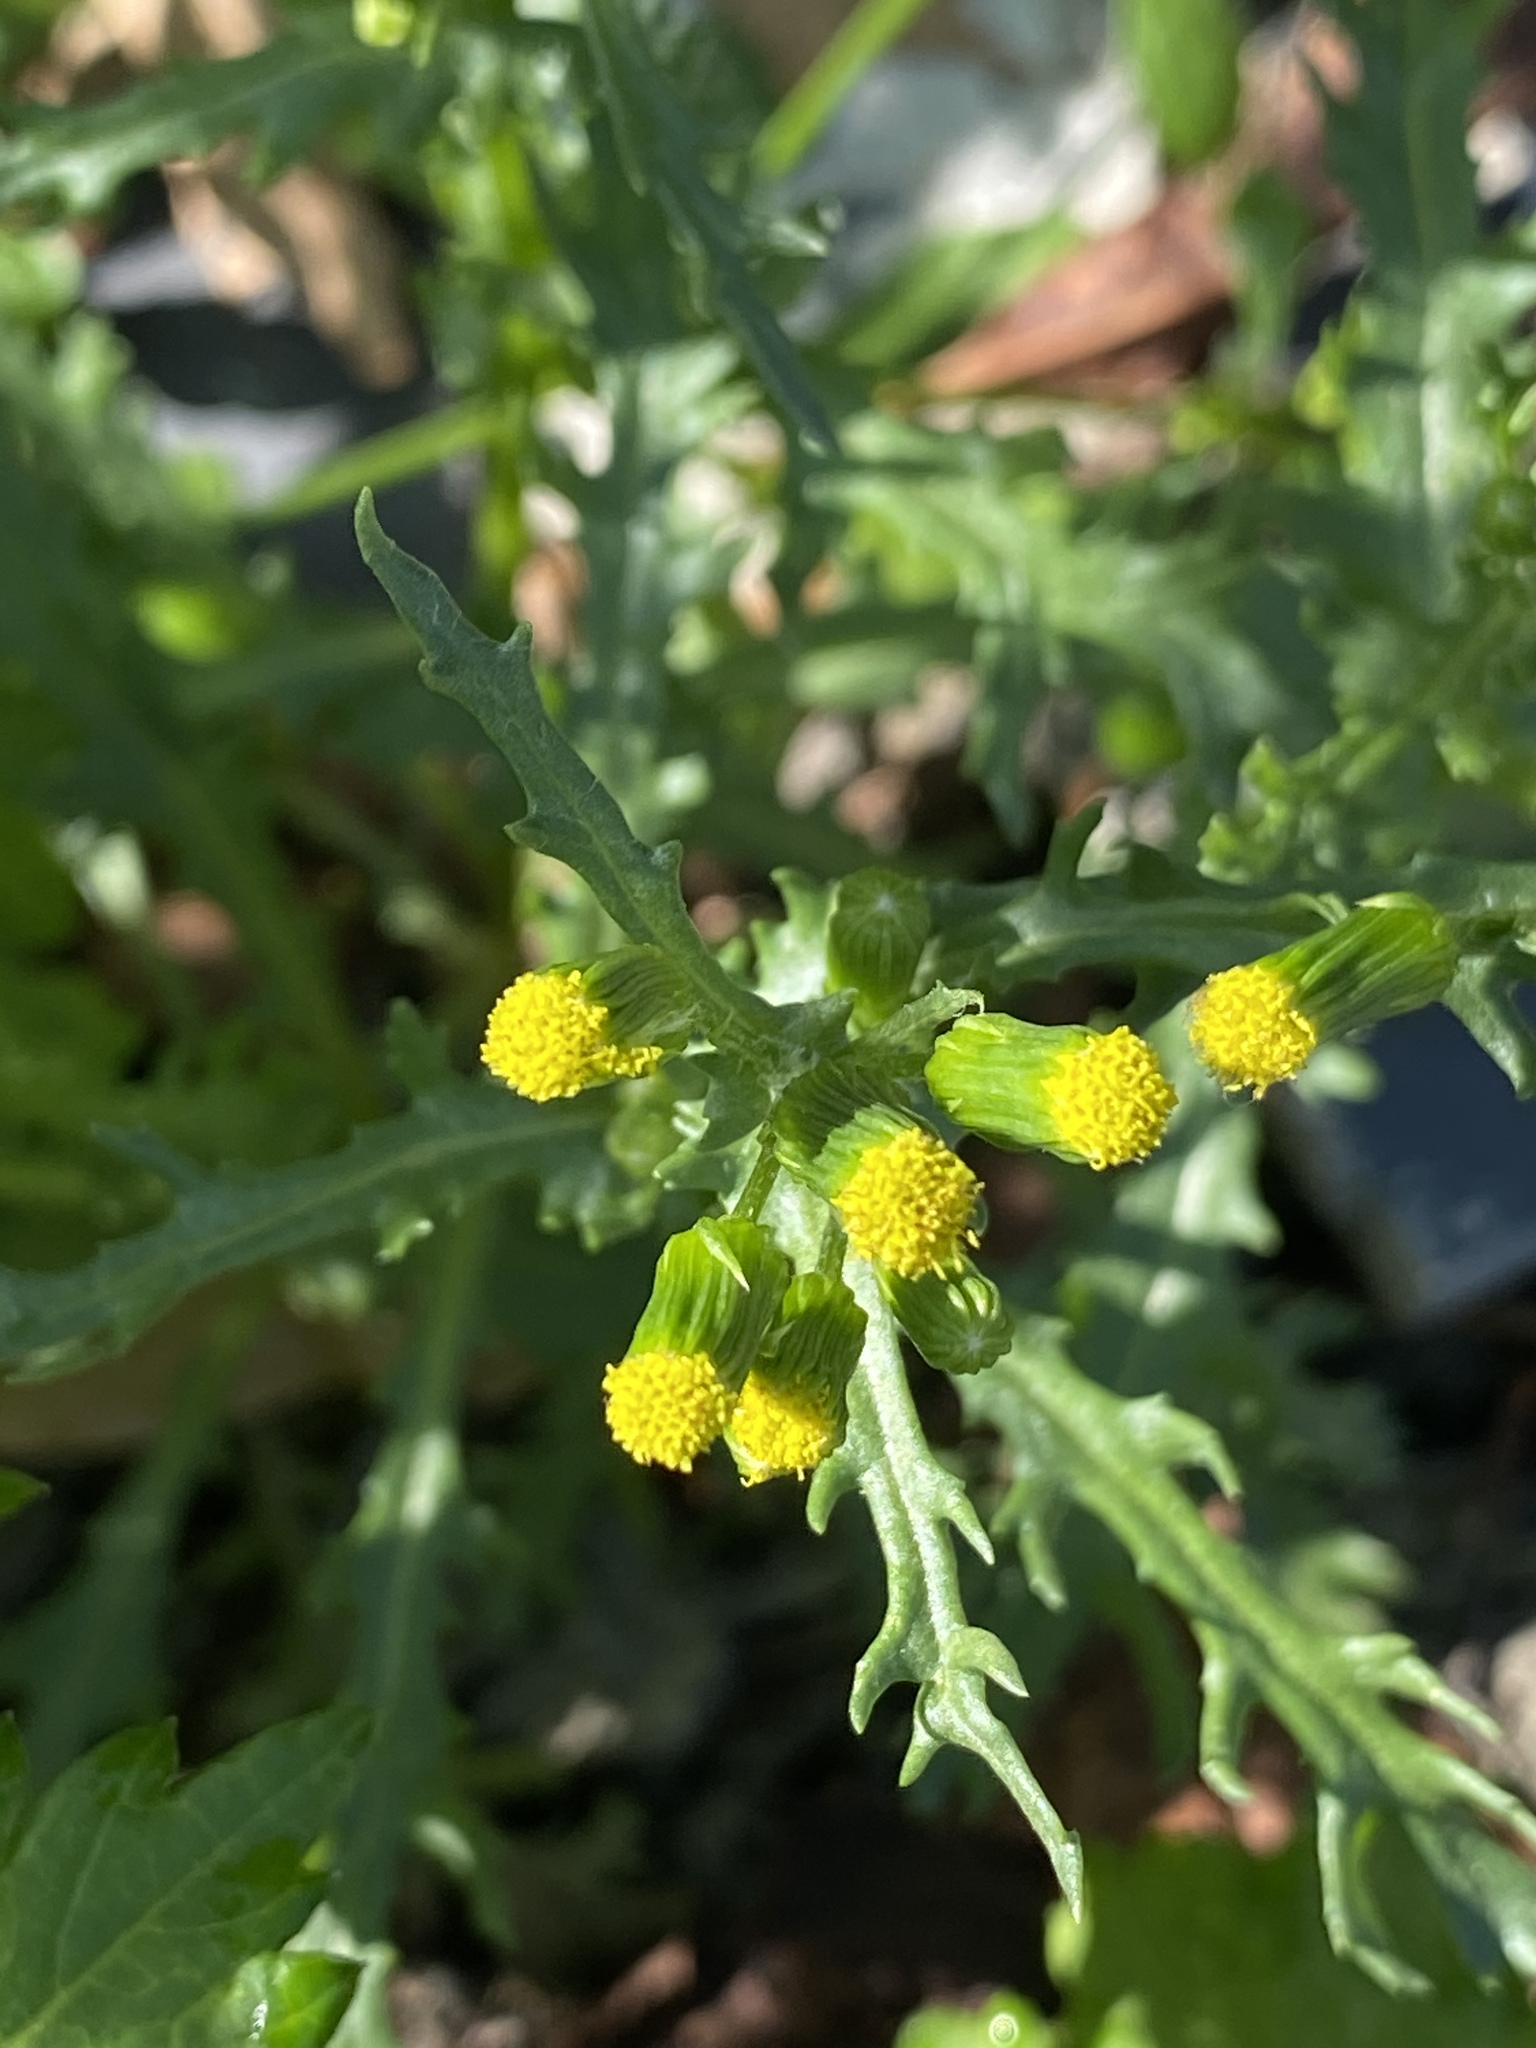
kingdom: Plantae
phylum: Tracheophyta
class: Magnoliopsida
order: Asterales
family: Asteraceae
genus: Senecio
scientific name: Senecio vulgaris
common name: Old-man-in-the-spring
